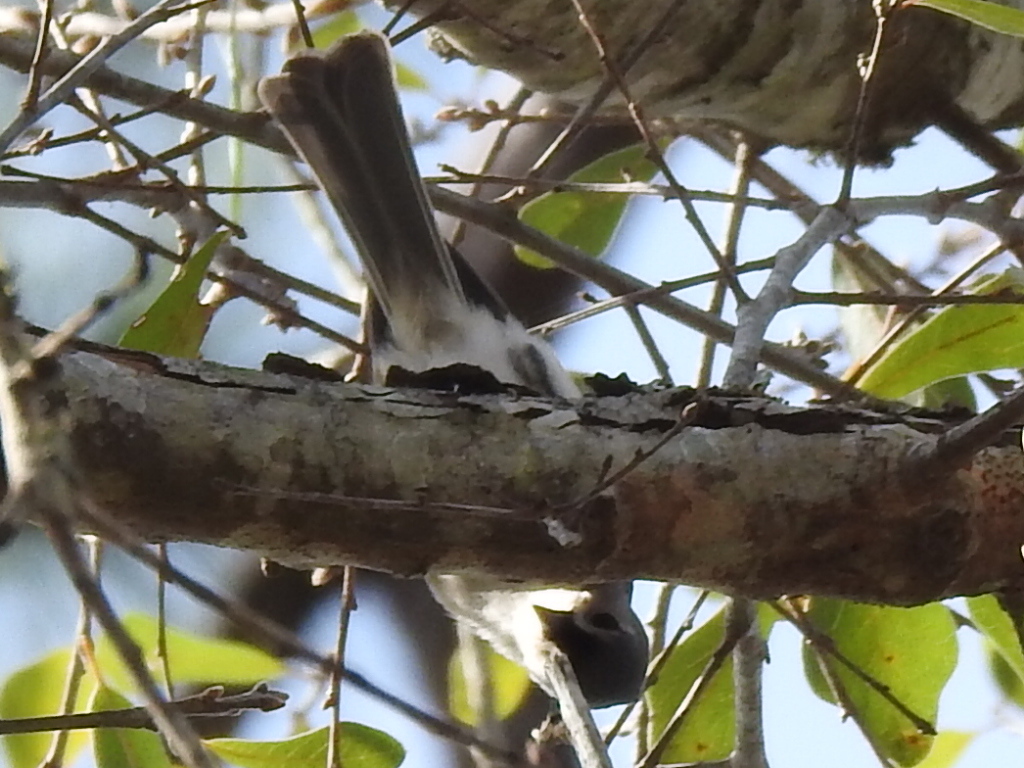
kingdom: Animalia
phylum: Chordata
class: Aves
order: Passeriformes
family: Paridae
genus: Baeolophus
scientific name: Baeolophus bicolor
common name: Tufted titmouse
